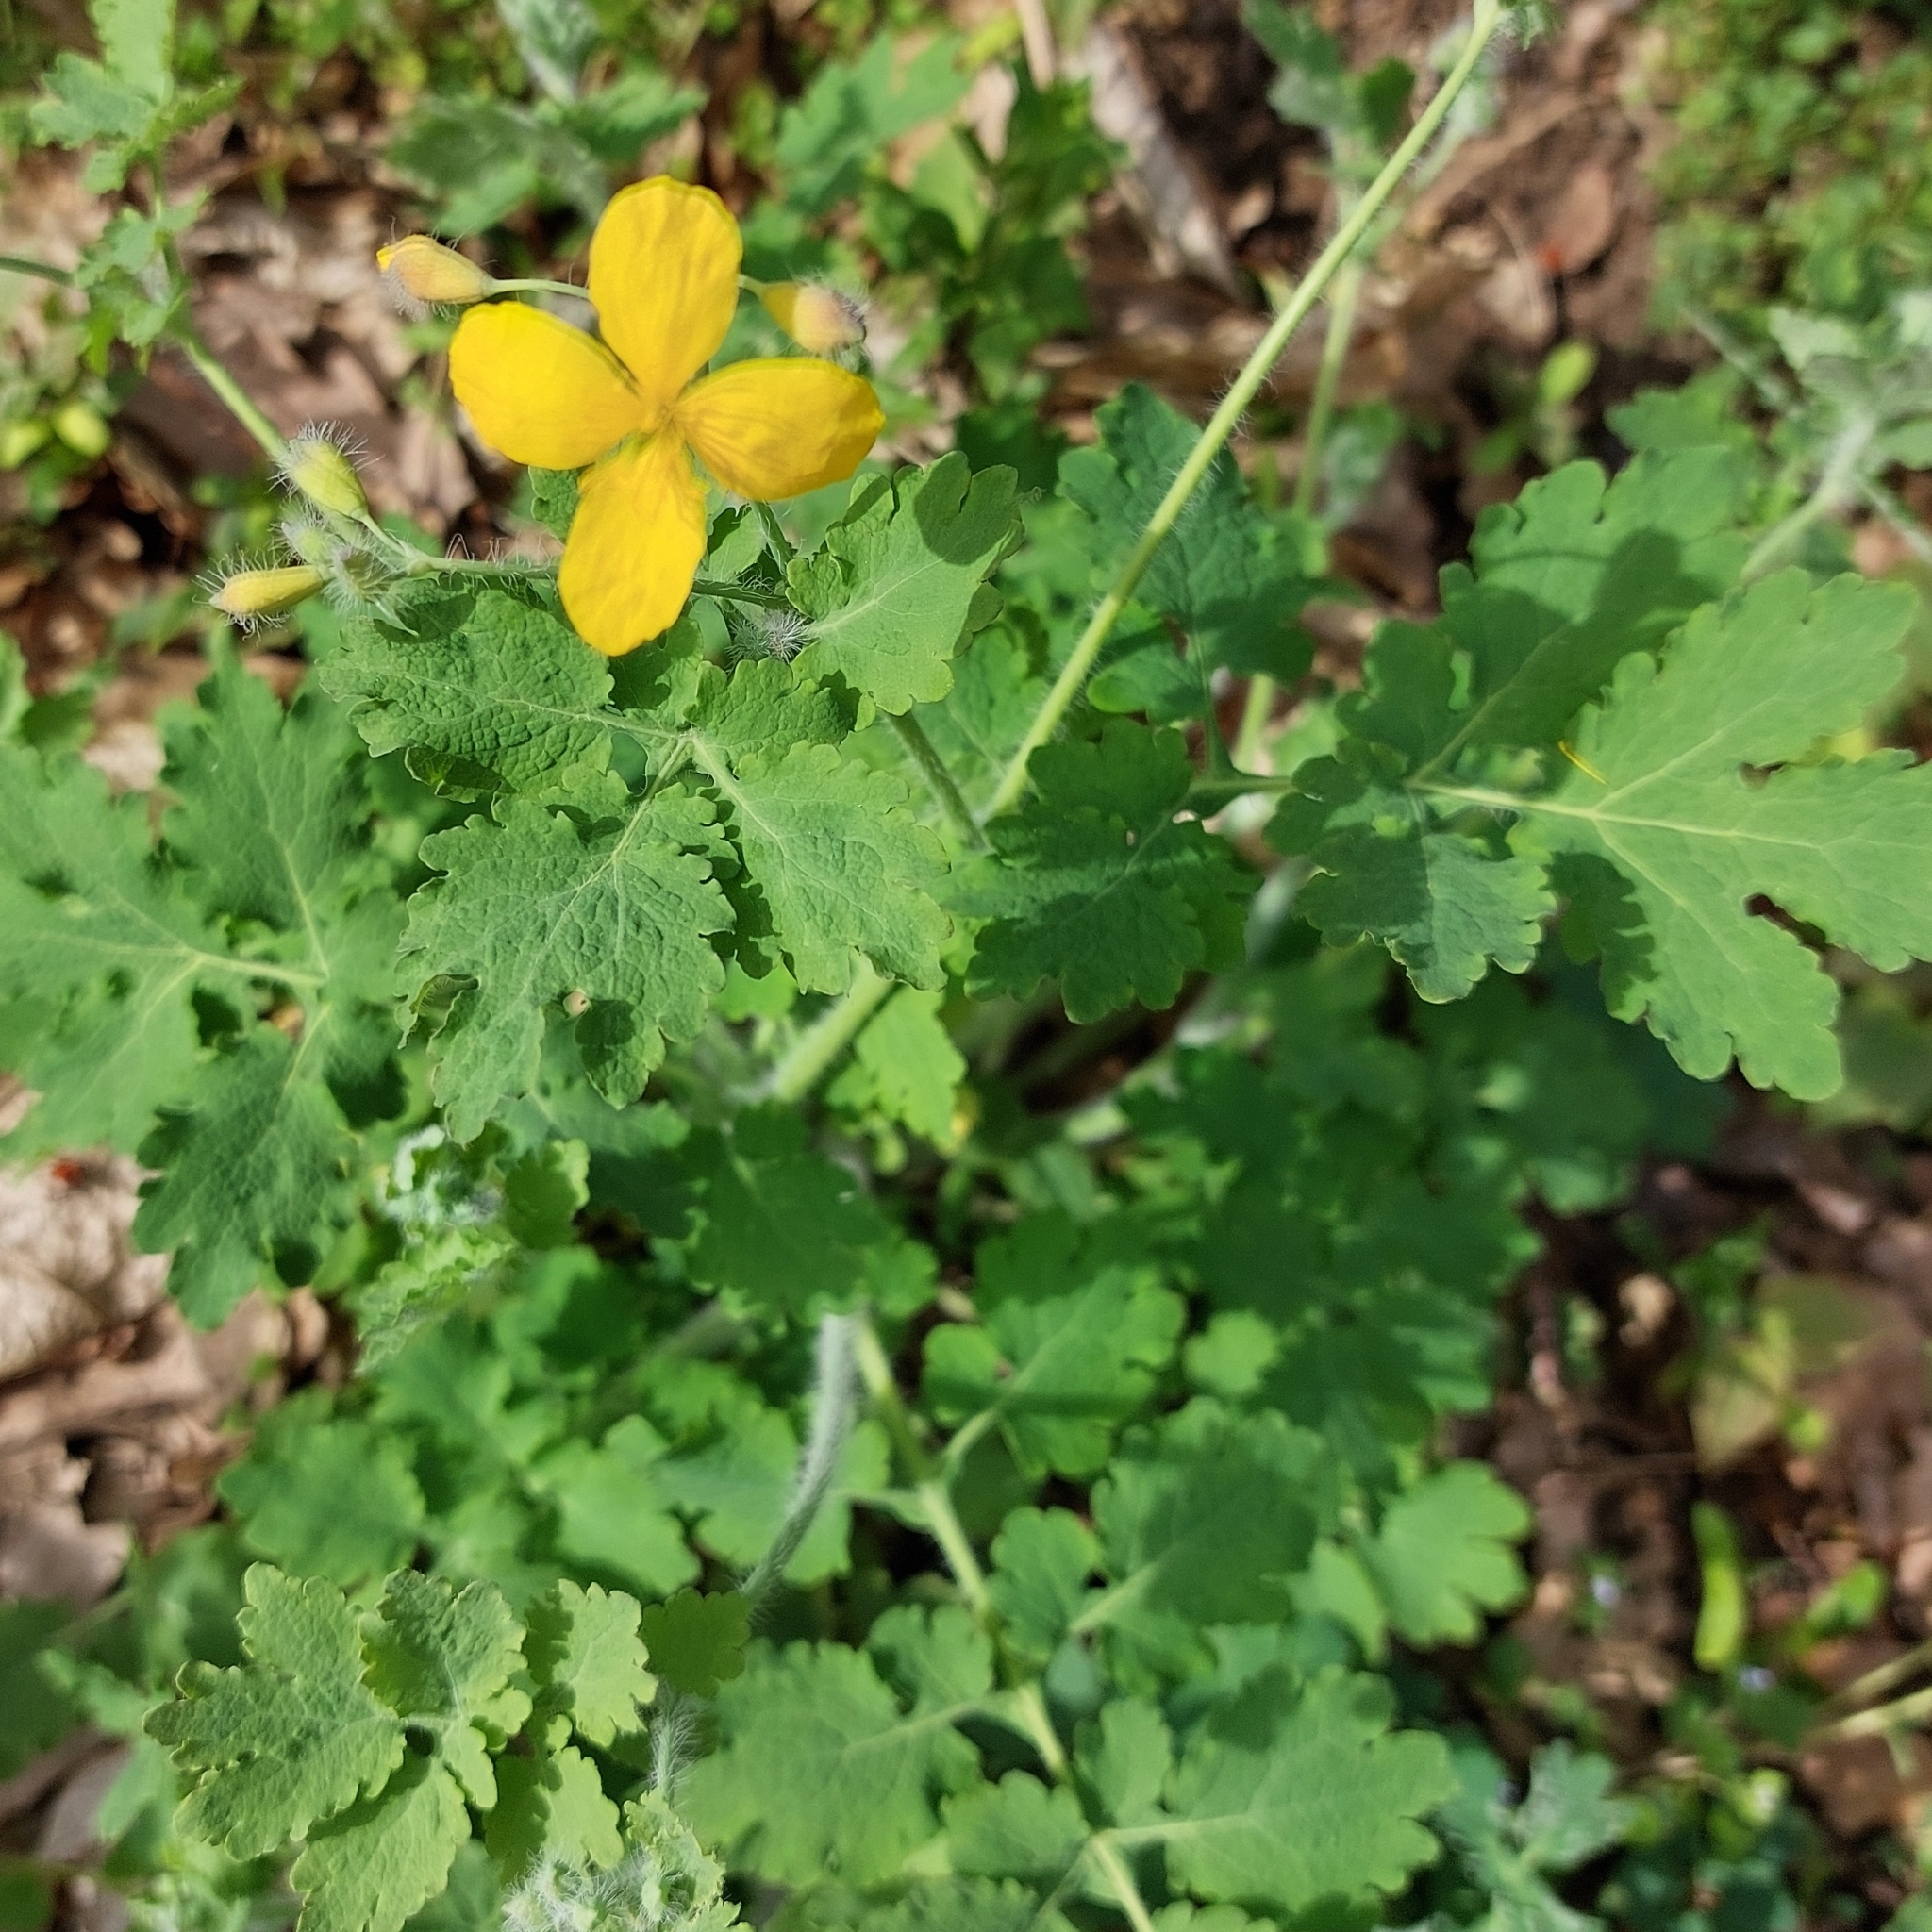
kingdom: Plantae
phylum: Tracheophyta
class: Magnoliopsida
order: Ranunculales
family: Papaveraceae
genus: Chelidonium
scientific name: Chelidonium majus
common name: Greater celandine
